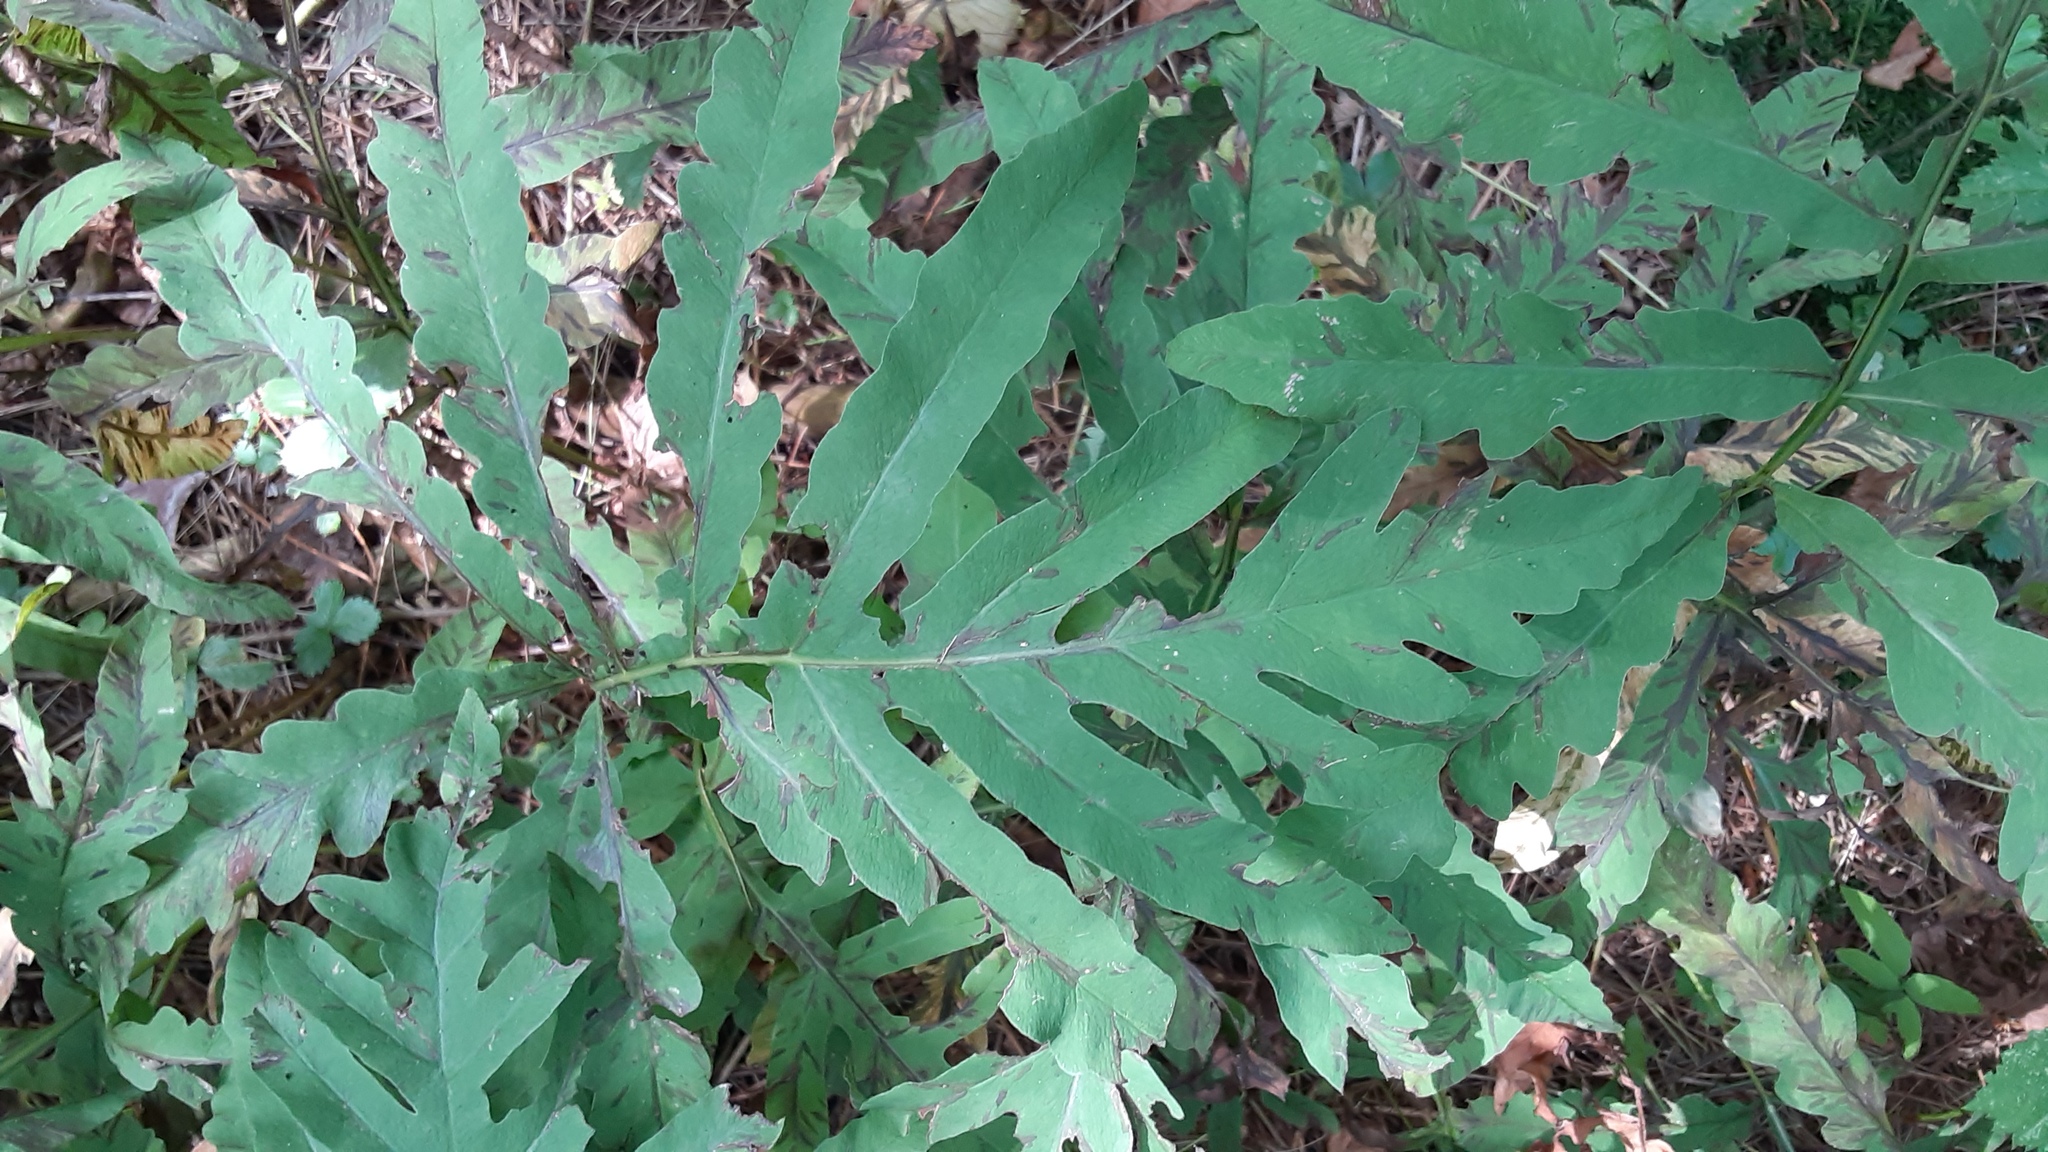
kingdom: Plantae
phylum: Tracheophyta
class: Polypodiopsida
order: Polypodiales
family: Onocleaceae
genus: Onoclea
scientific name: Onoclea sensibilis
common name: Sensitive fern
